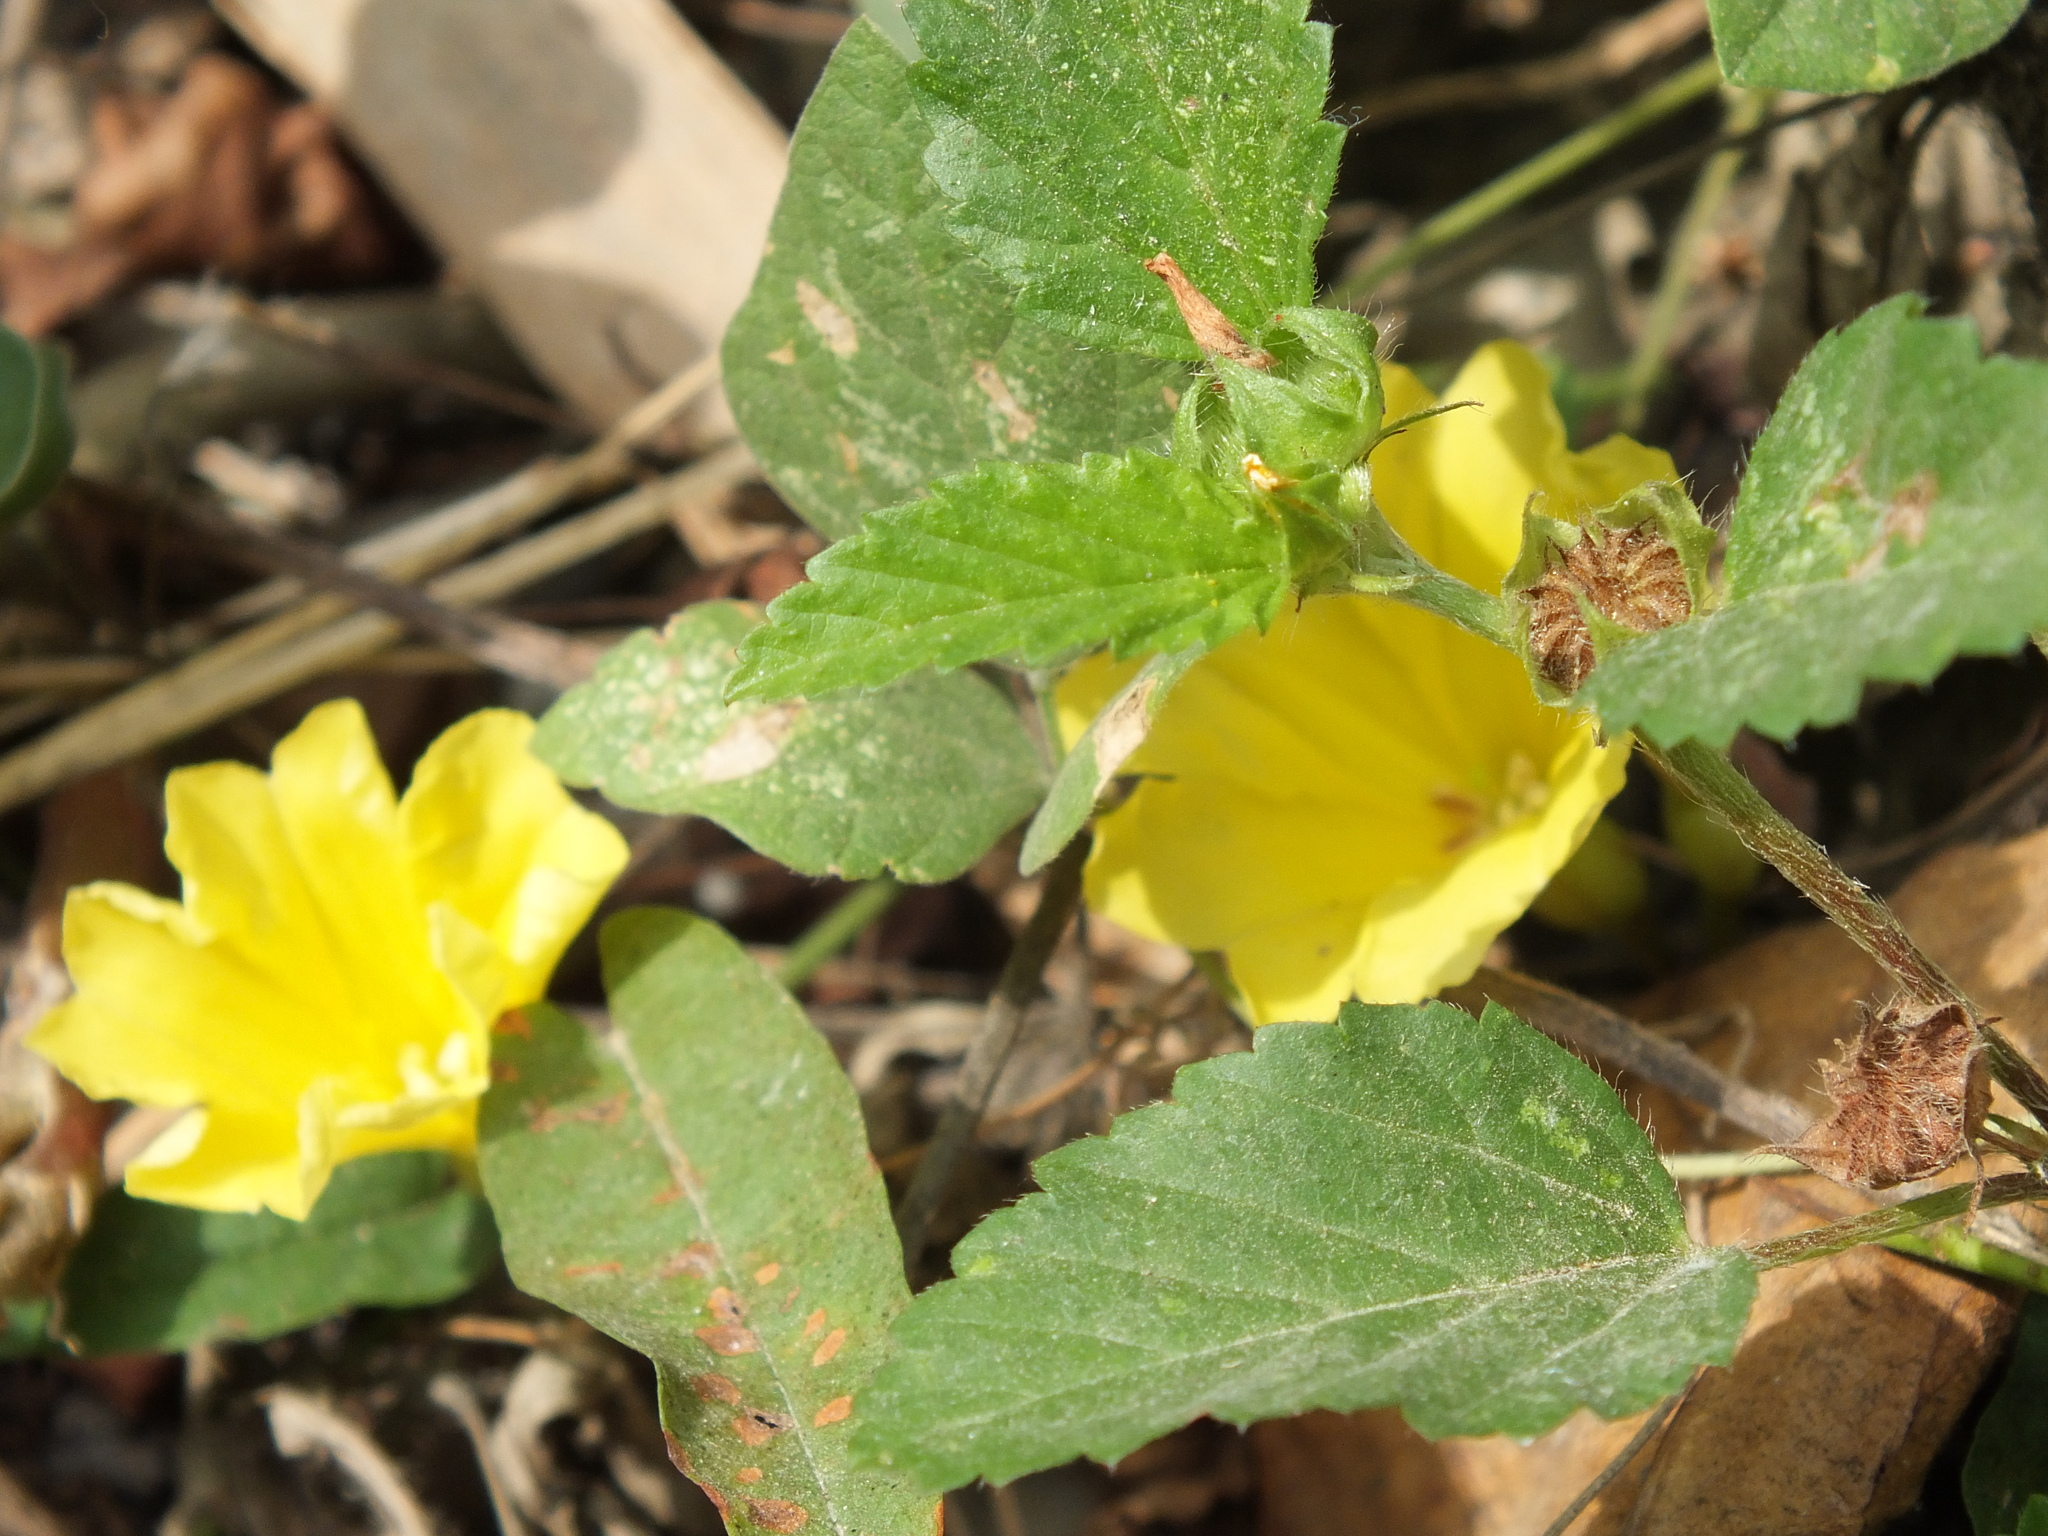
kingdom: Plantae
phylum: Tracheophyta
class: Magnoliopsida
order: Malvales
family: Malvaceae
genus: Malvastrum
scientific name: Malvastrum coromandelianum
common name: Threelobe false mallow
